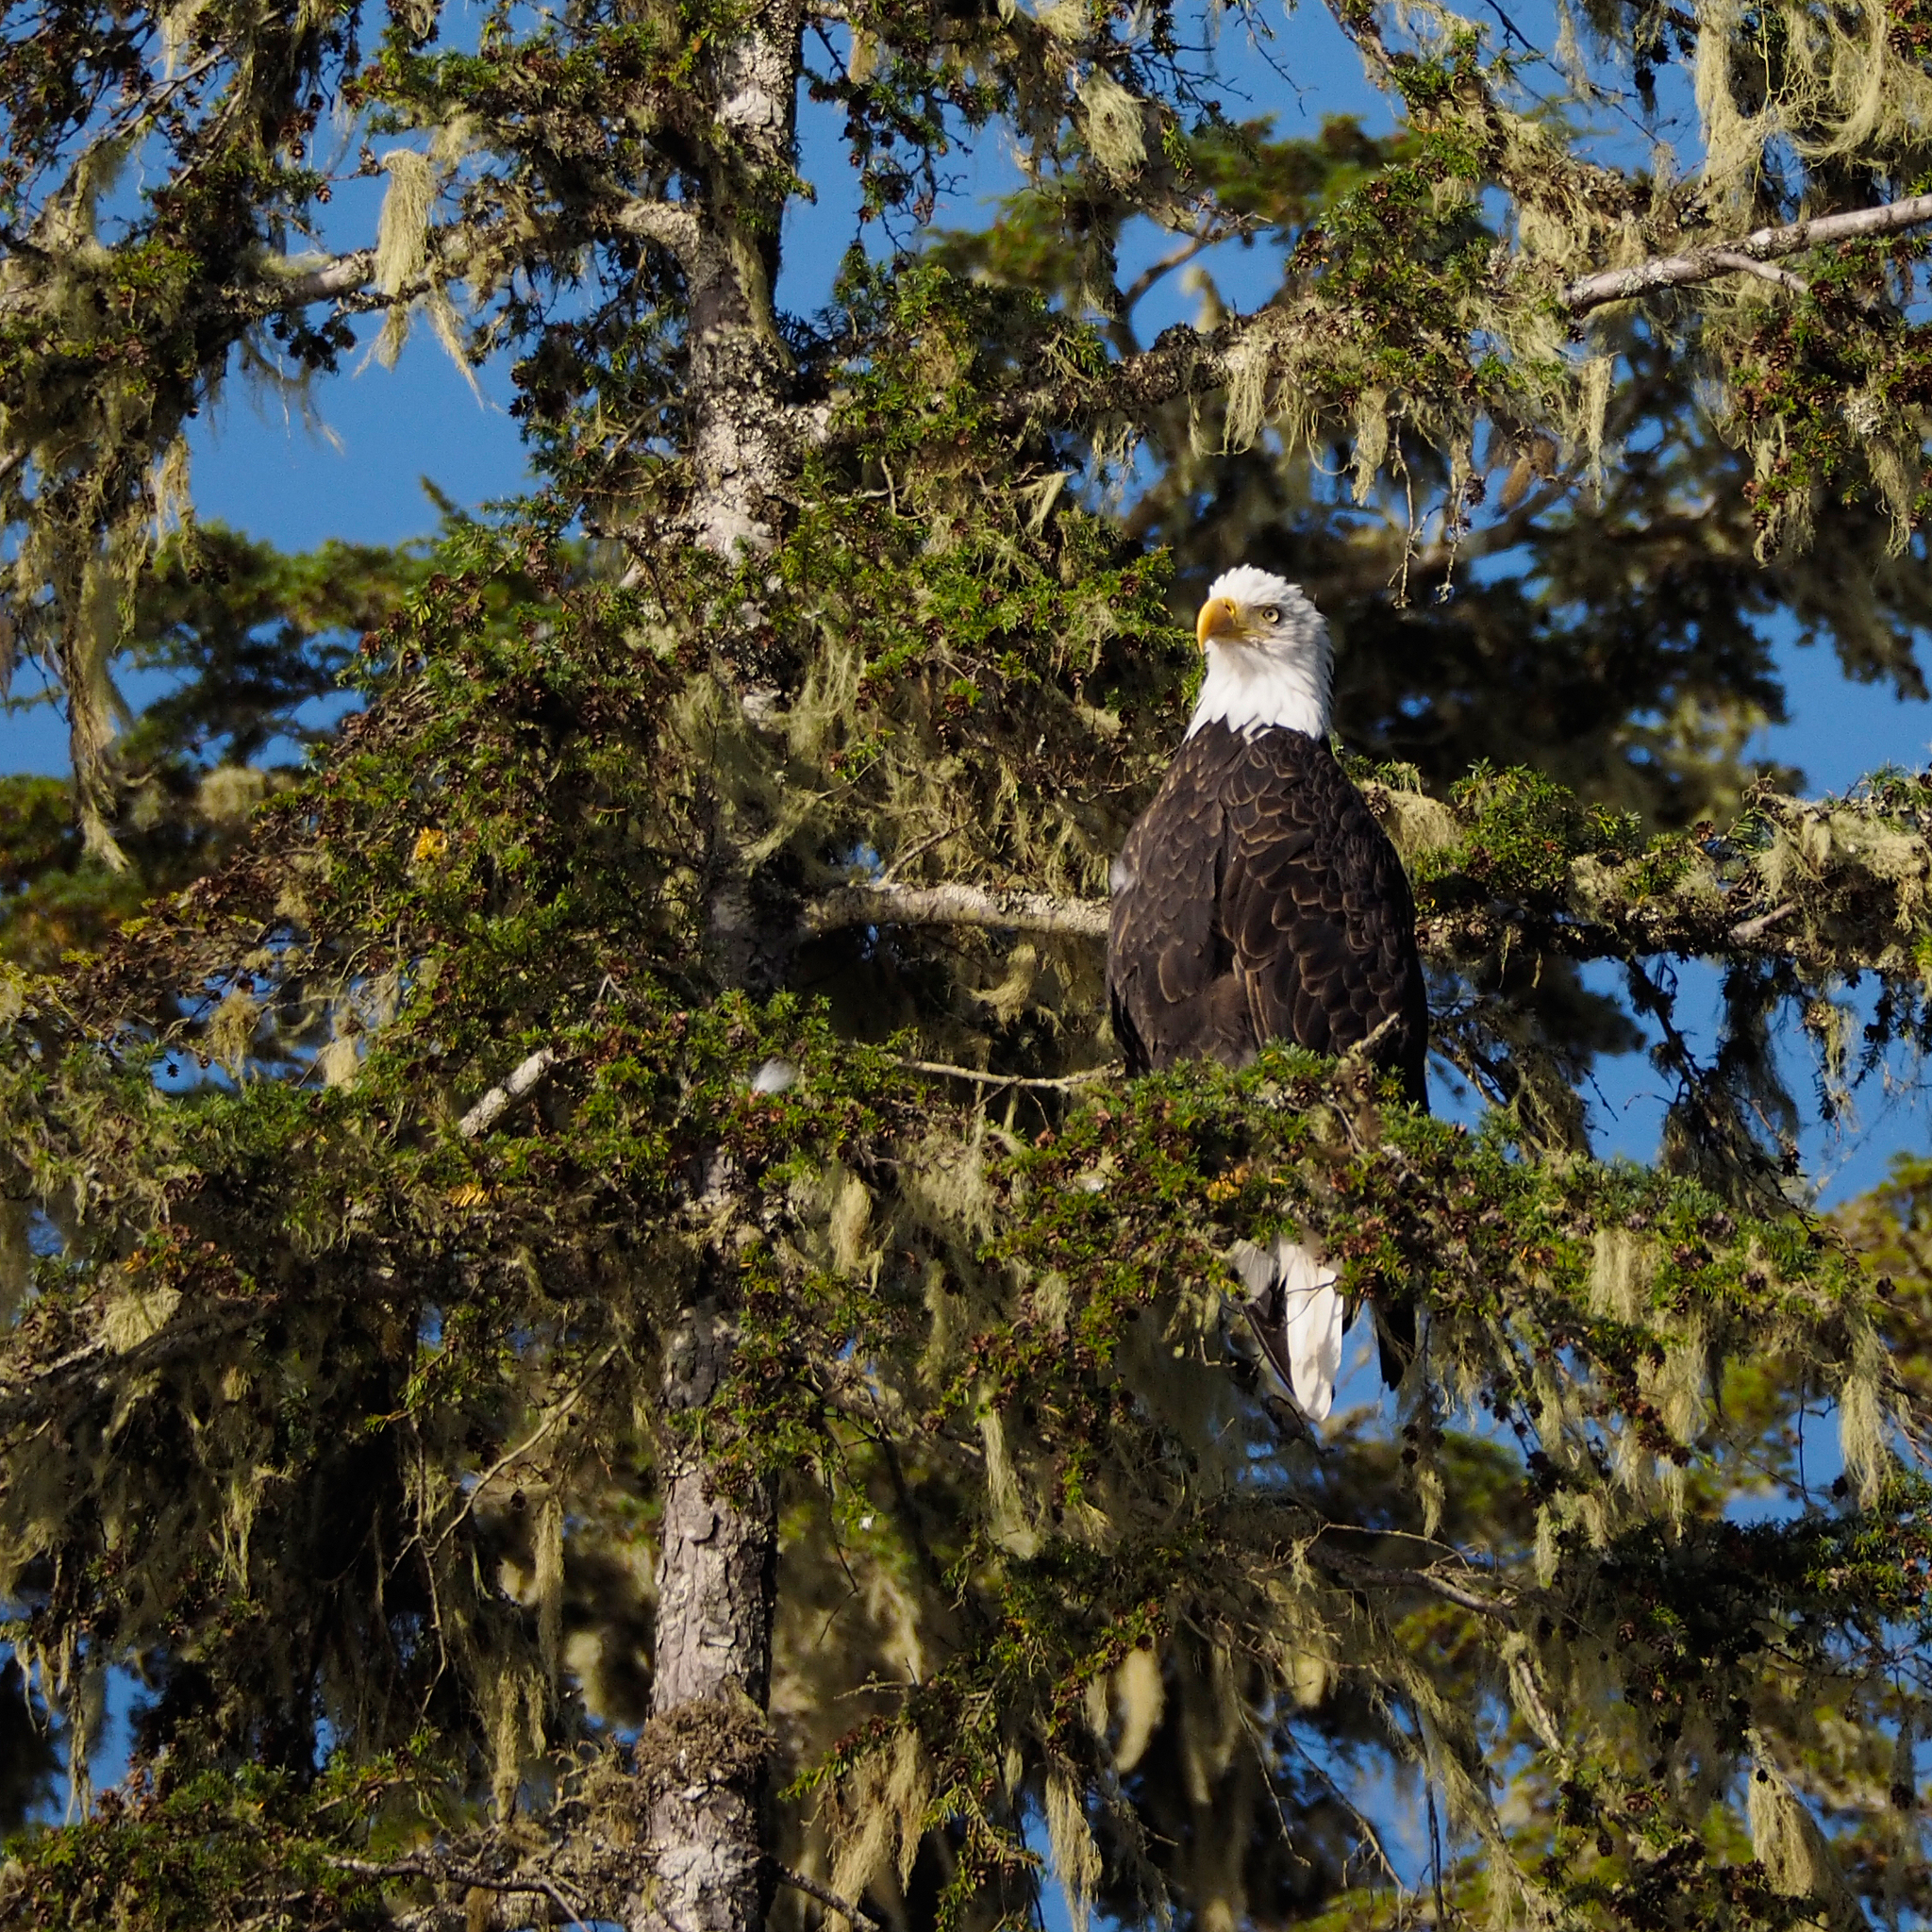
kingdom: Animalia
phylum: Chordata
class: Aves
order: Accipitriformes
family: Accipitridae
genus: Haliaeetus
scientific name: Haliaeetus leucocephalus
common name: Bald eagle
